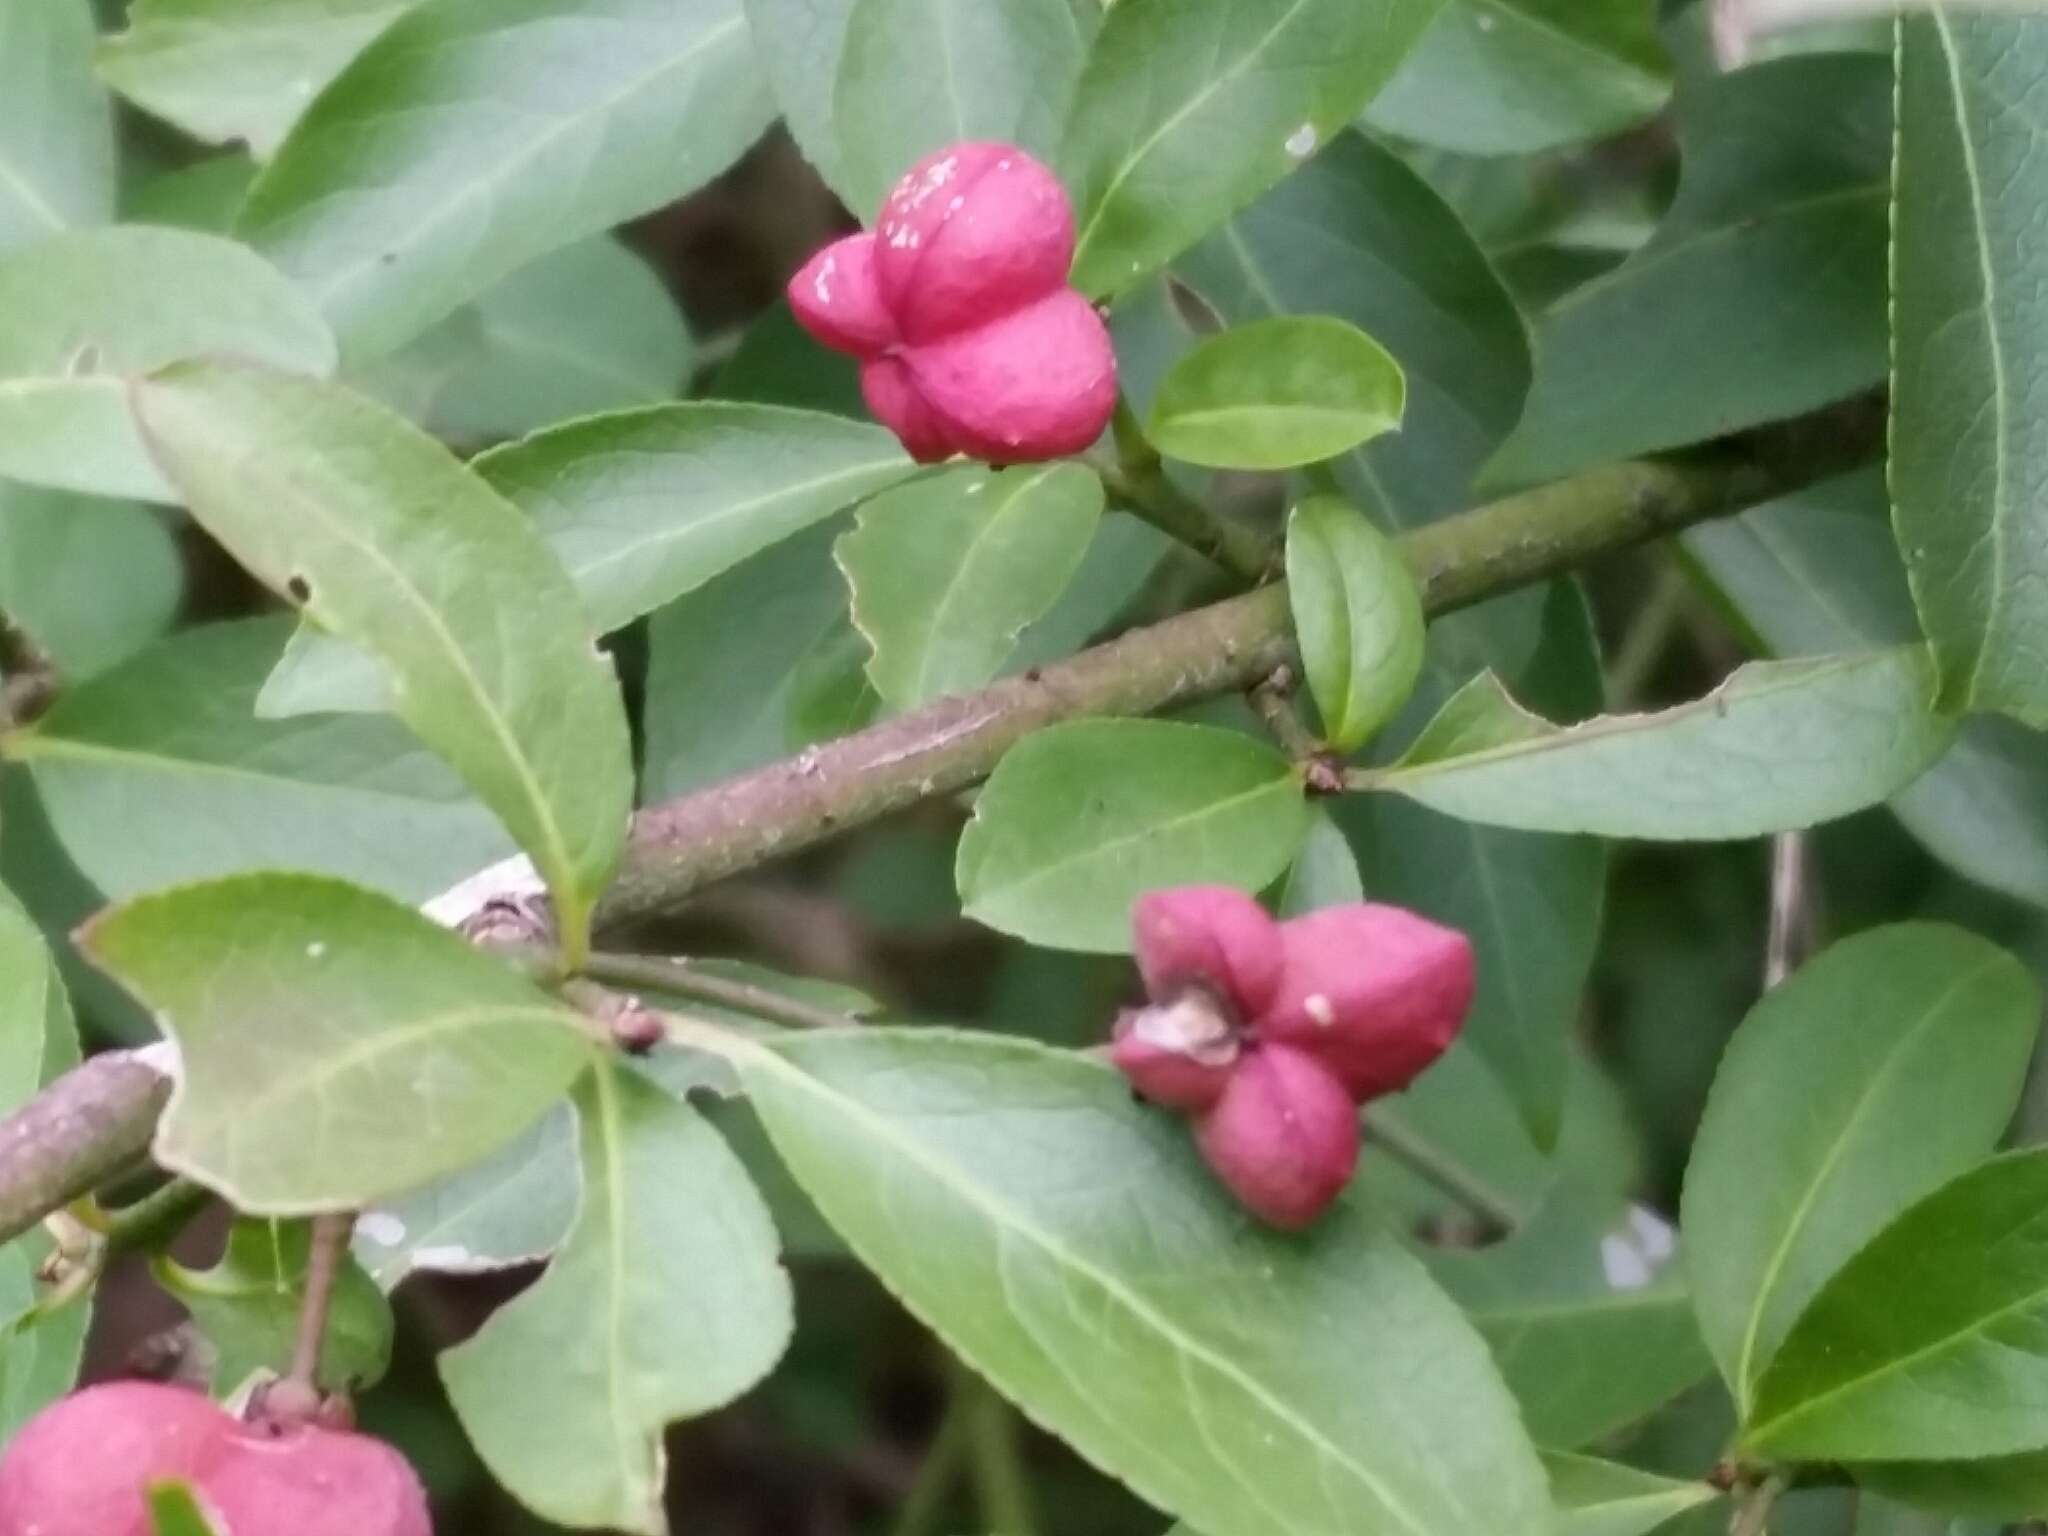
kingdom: Plantae
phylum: Tracheophyta
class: Magnoliopsida
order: Celastrales
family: Celastraceae
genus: Euonymus
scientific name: Euonymus europaeus
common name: Spindle
